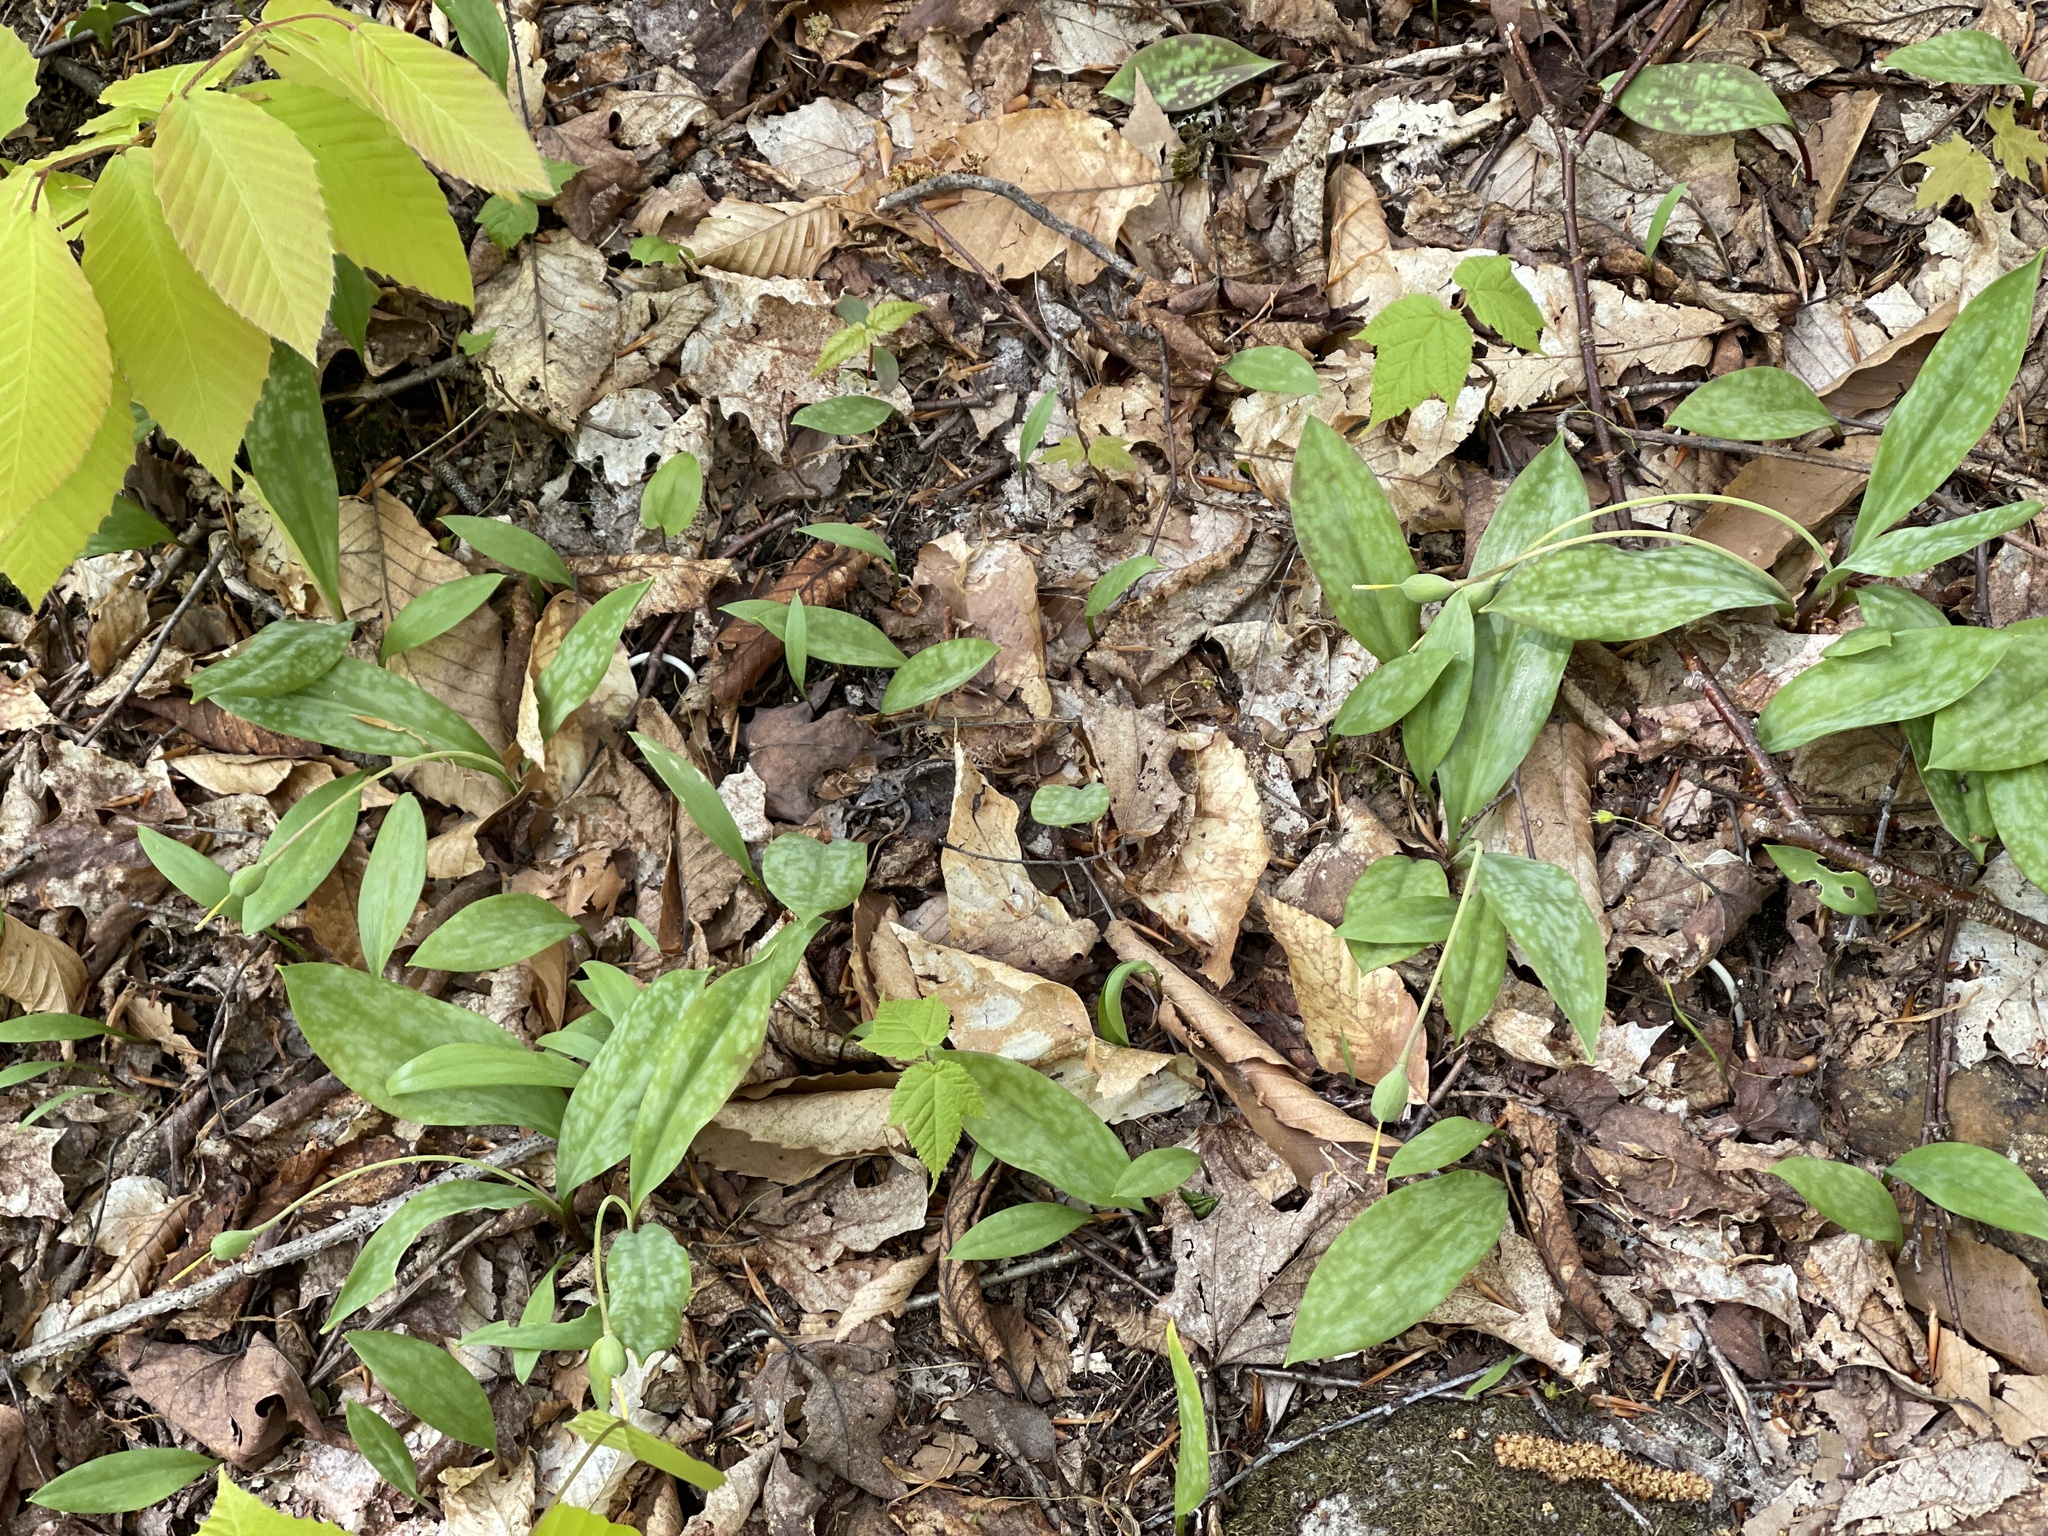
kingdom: Plantae
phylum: Tracheophyta
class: Liliopsida
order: Liliales
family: Liliaceae
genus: Erythronium
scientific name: Erythronium americanum
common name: Yellow adder's-tongue
